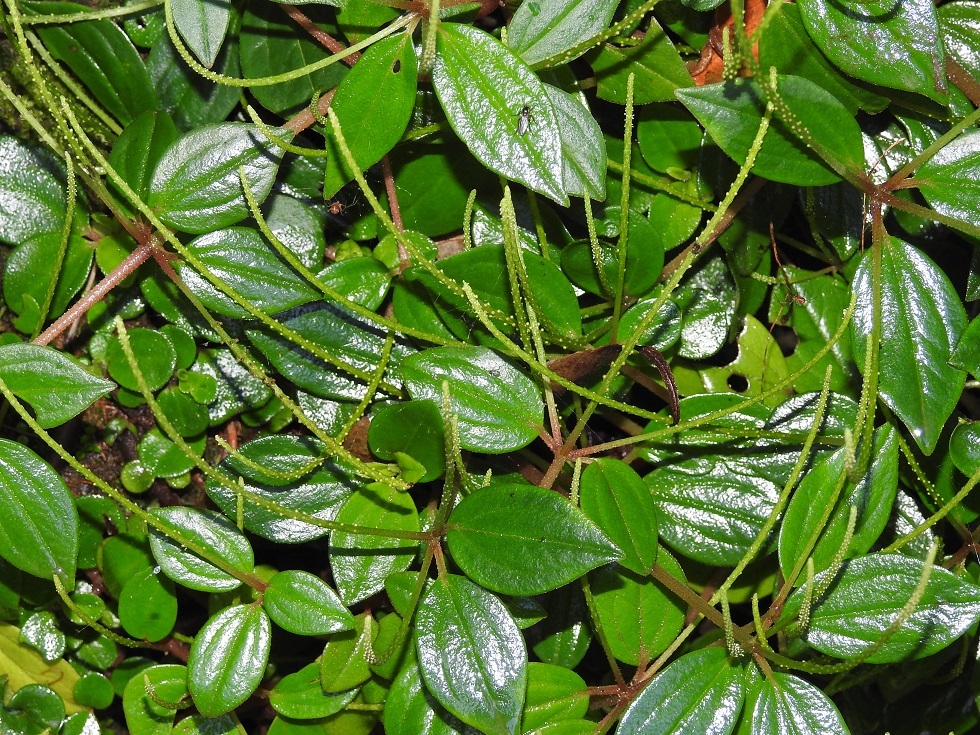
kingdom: Plantae
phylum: Tracheophyta
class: Magnoliopsida
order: Piperales
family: Piperaceae
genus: Peperomia
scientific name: Peperomia arboricola
